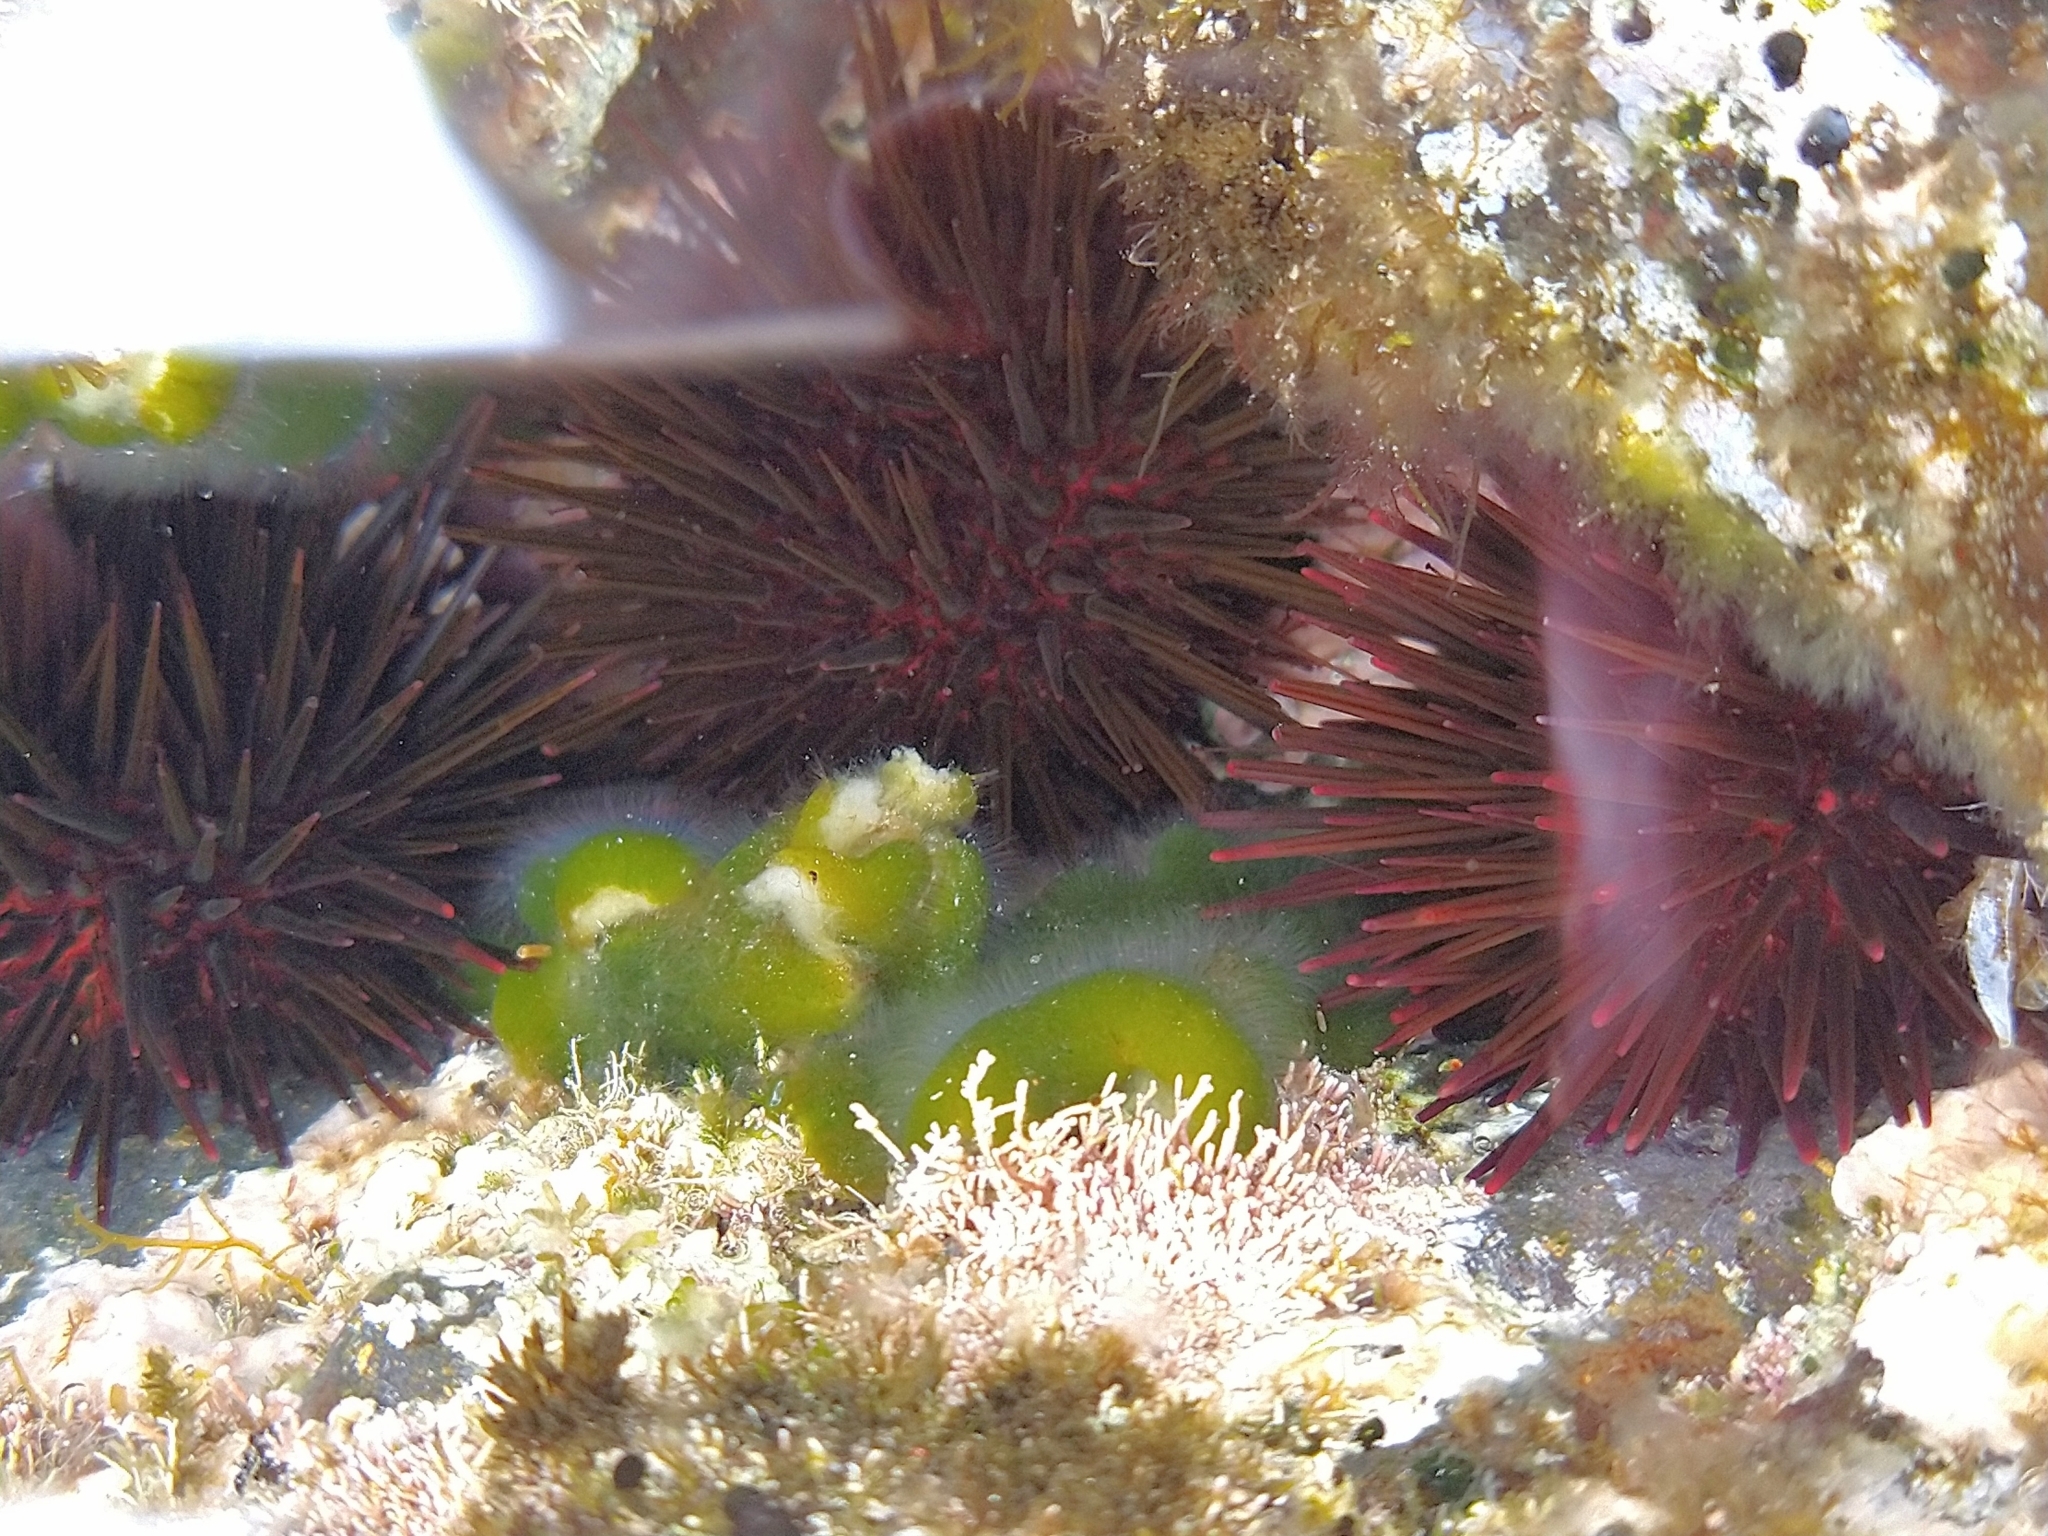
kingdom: Animalia
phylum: Echinodermata
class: Echinoidea
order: Camarodonta
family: Parechinidae
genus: Paracentrotus
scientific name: Paracentrotus lividus
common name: Purple sea urchin
